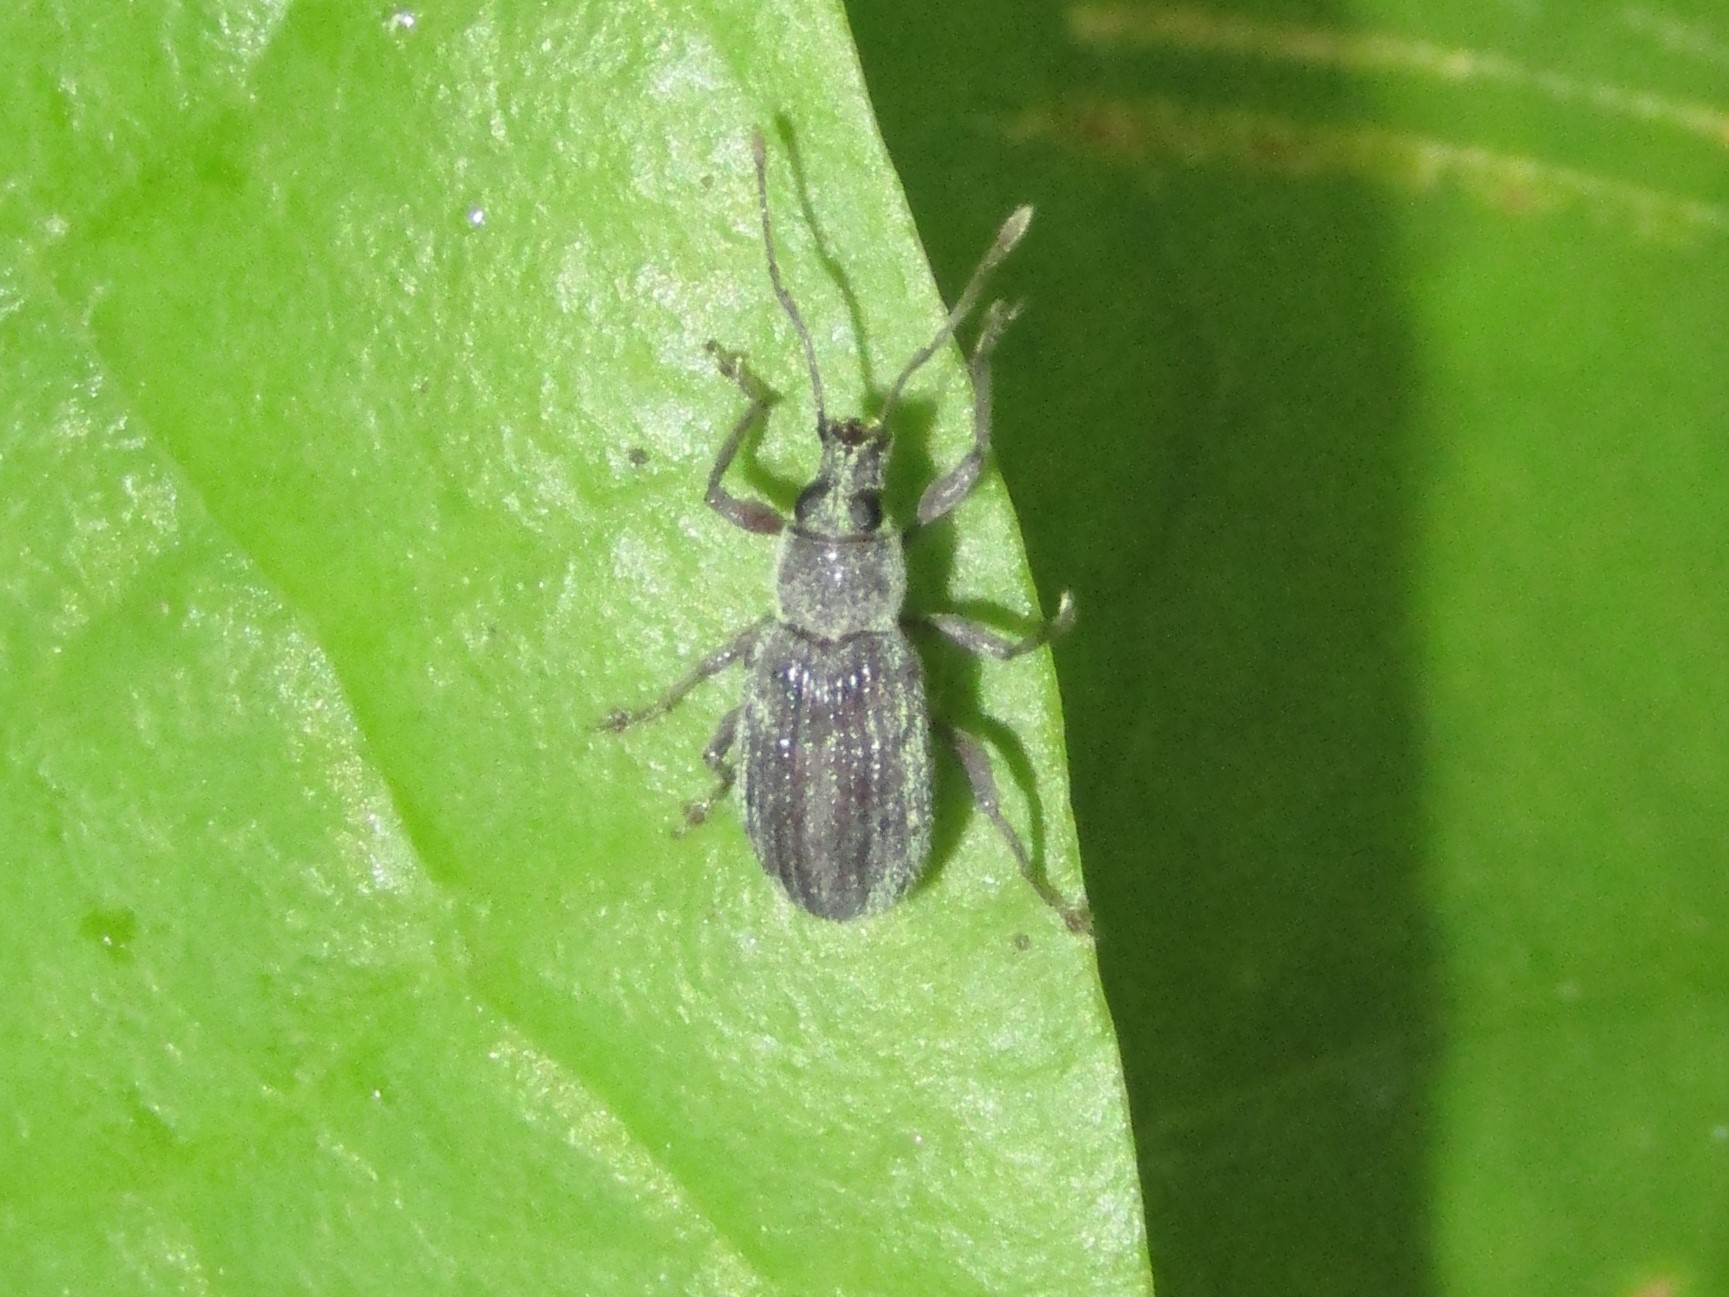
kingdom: Animalia
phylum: Arthropoda
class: Insecta
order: Coleoptera
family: Curculionidae
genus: Cyrtepistomus
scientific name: Cyrtepistomus castaneus
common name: Weevil
